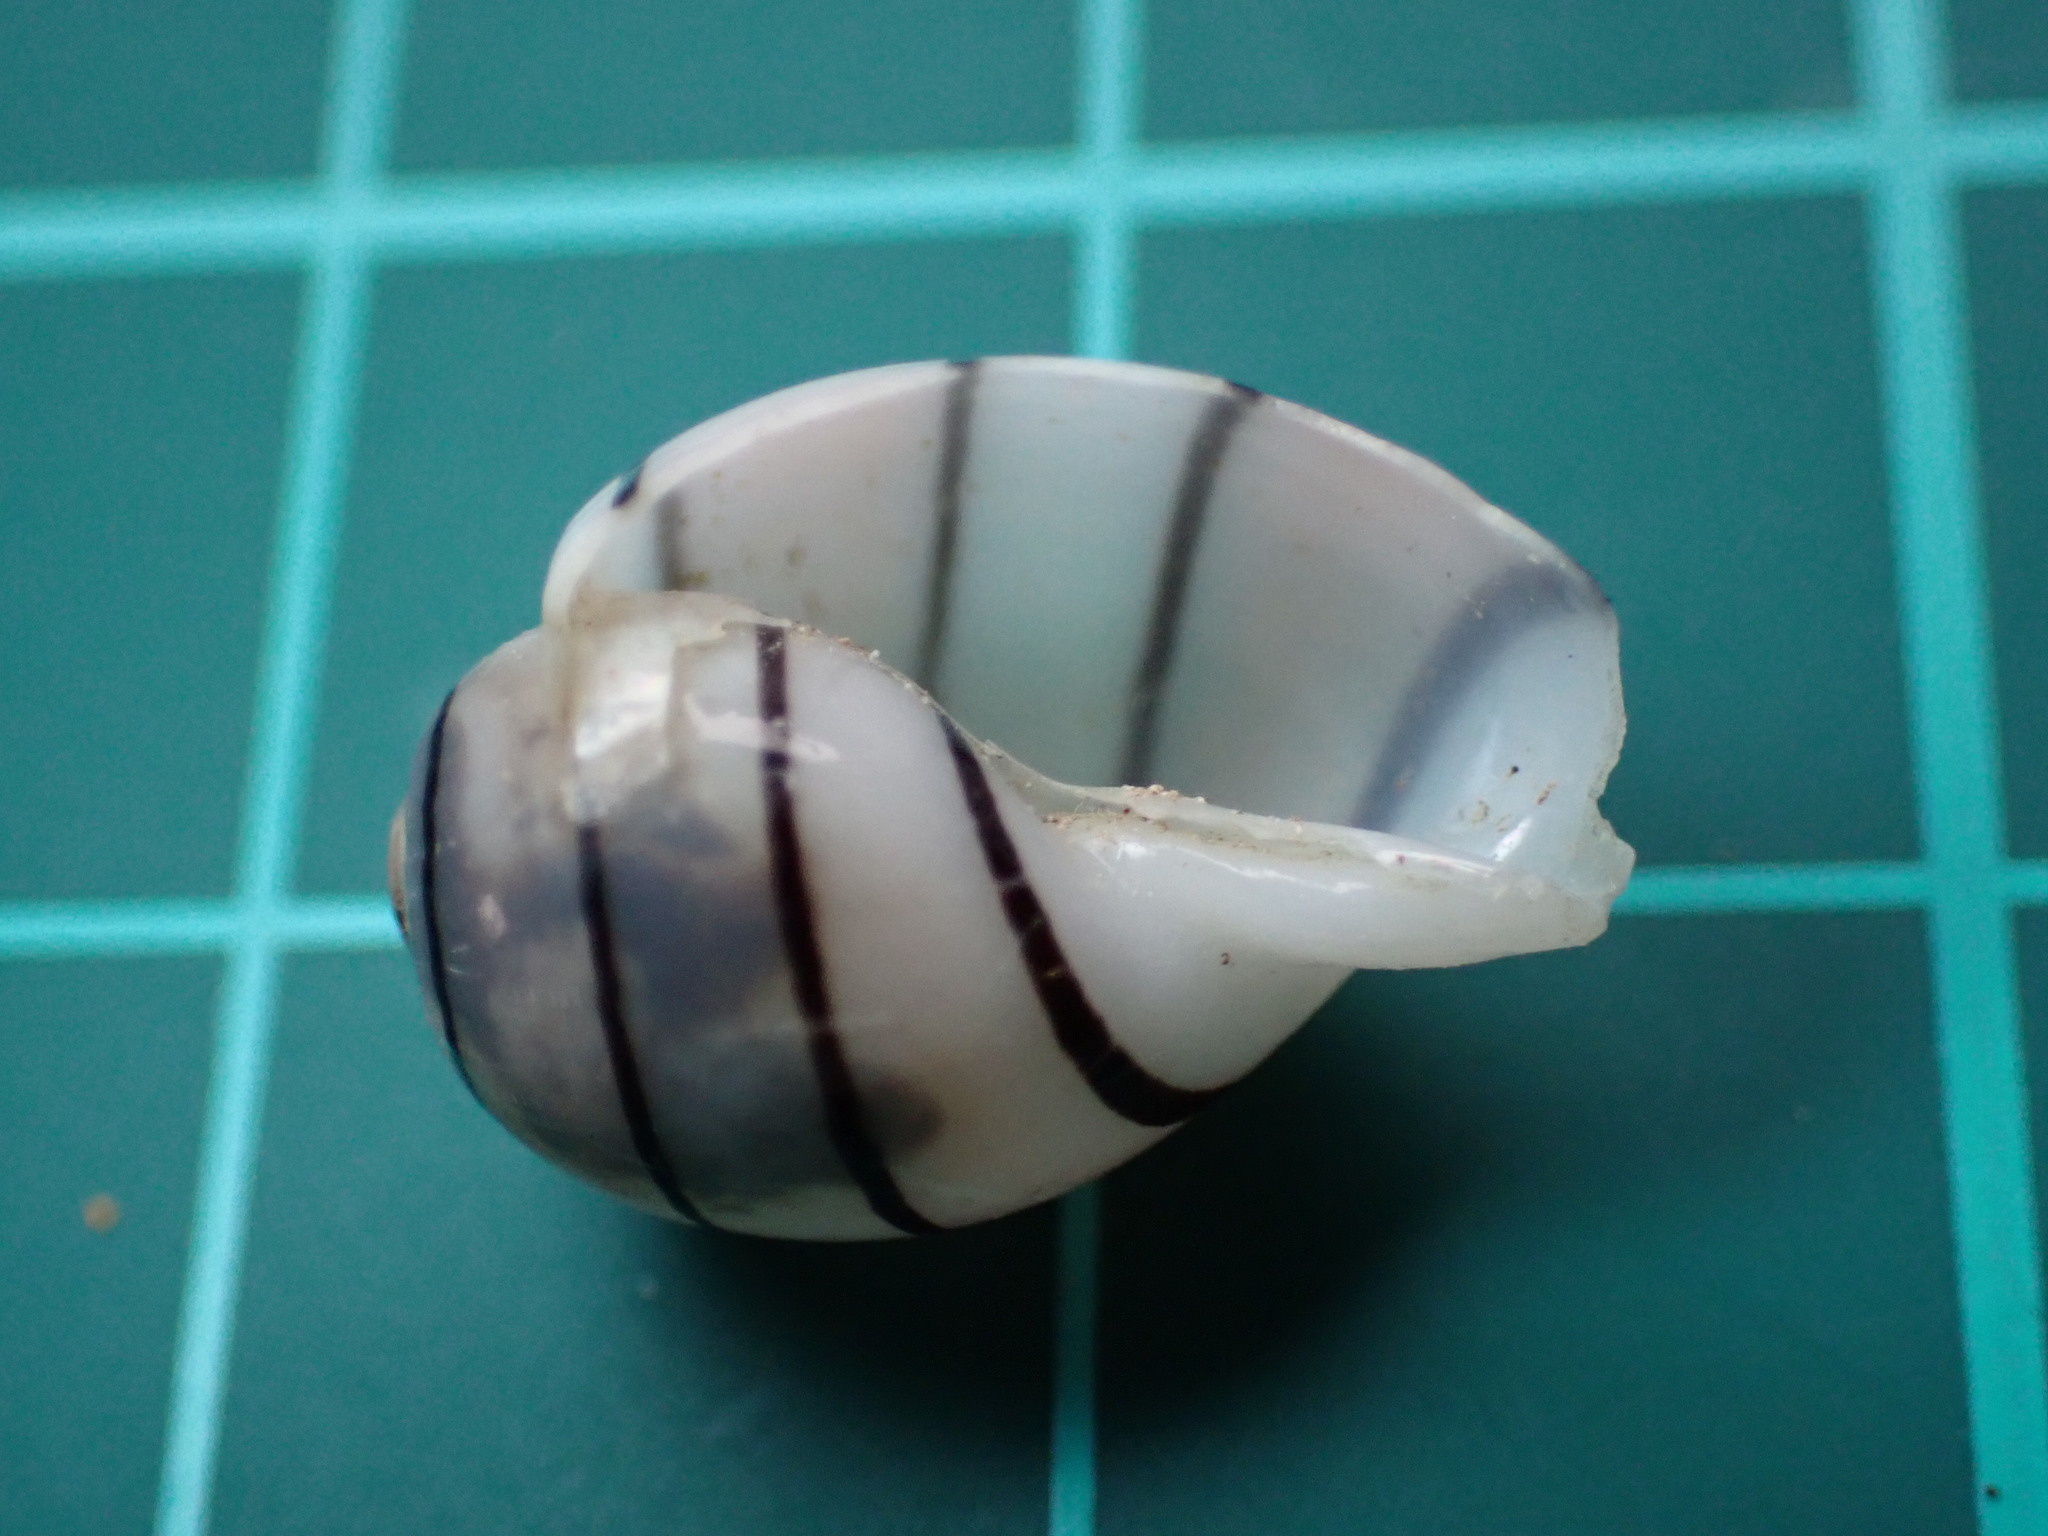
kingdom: Animalia
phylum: Mollusca
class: Gastropoda
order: Cephalaspidea
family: Aplustridae
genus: Aplustrum
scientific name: Aplustrum amplustre
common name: Royal paperbubble
